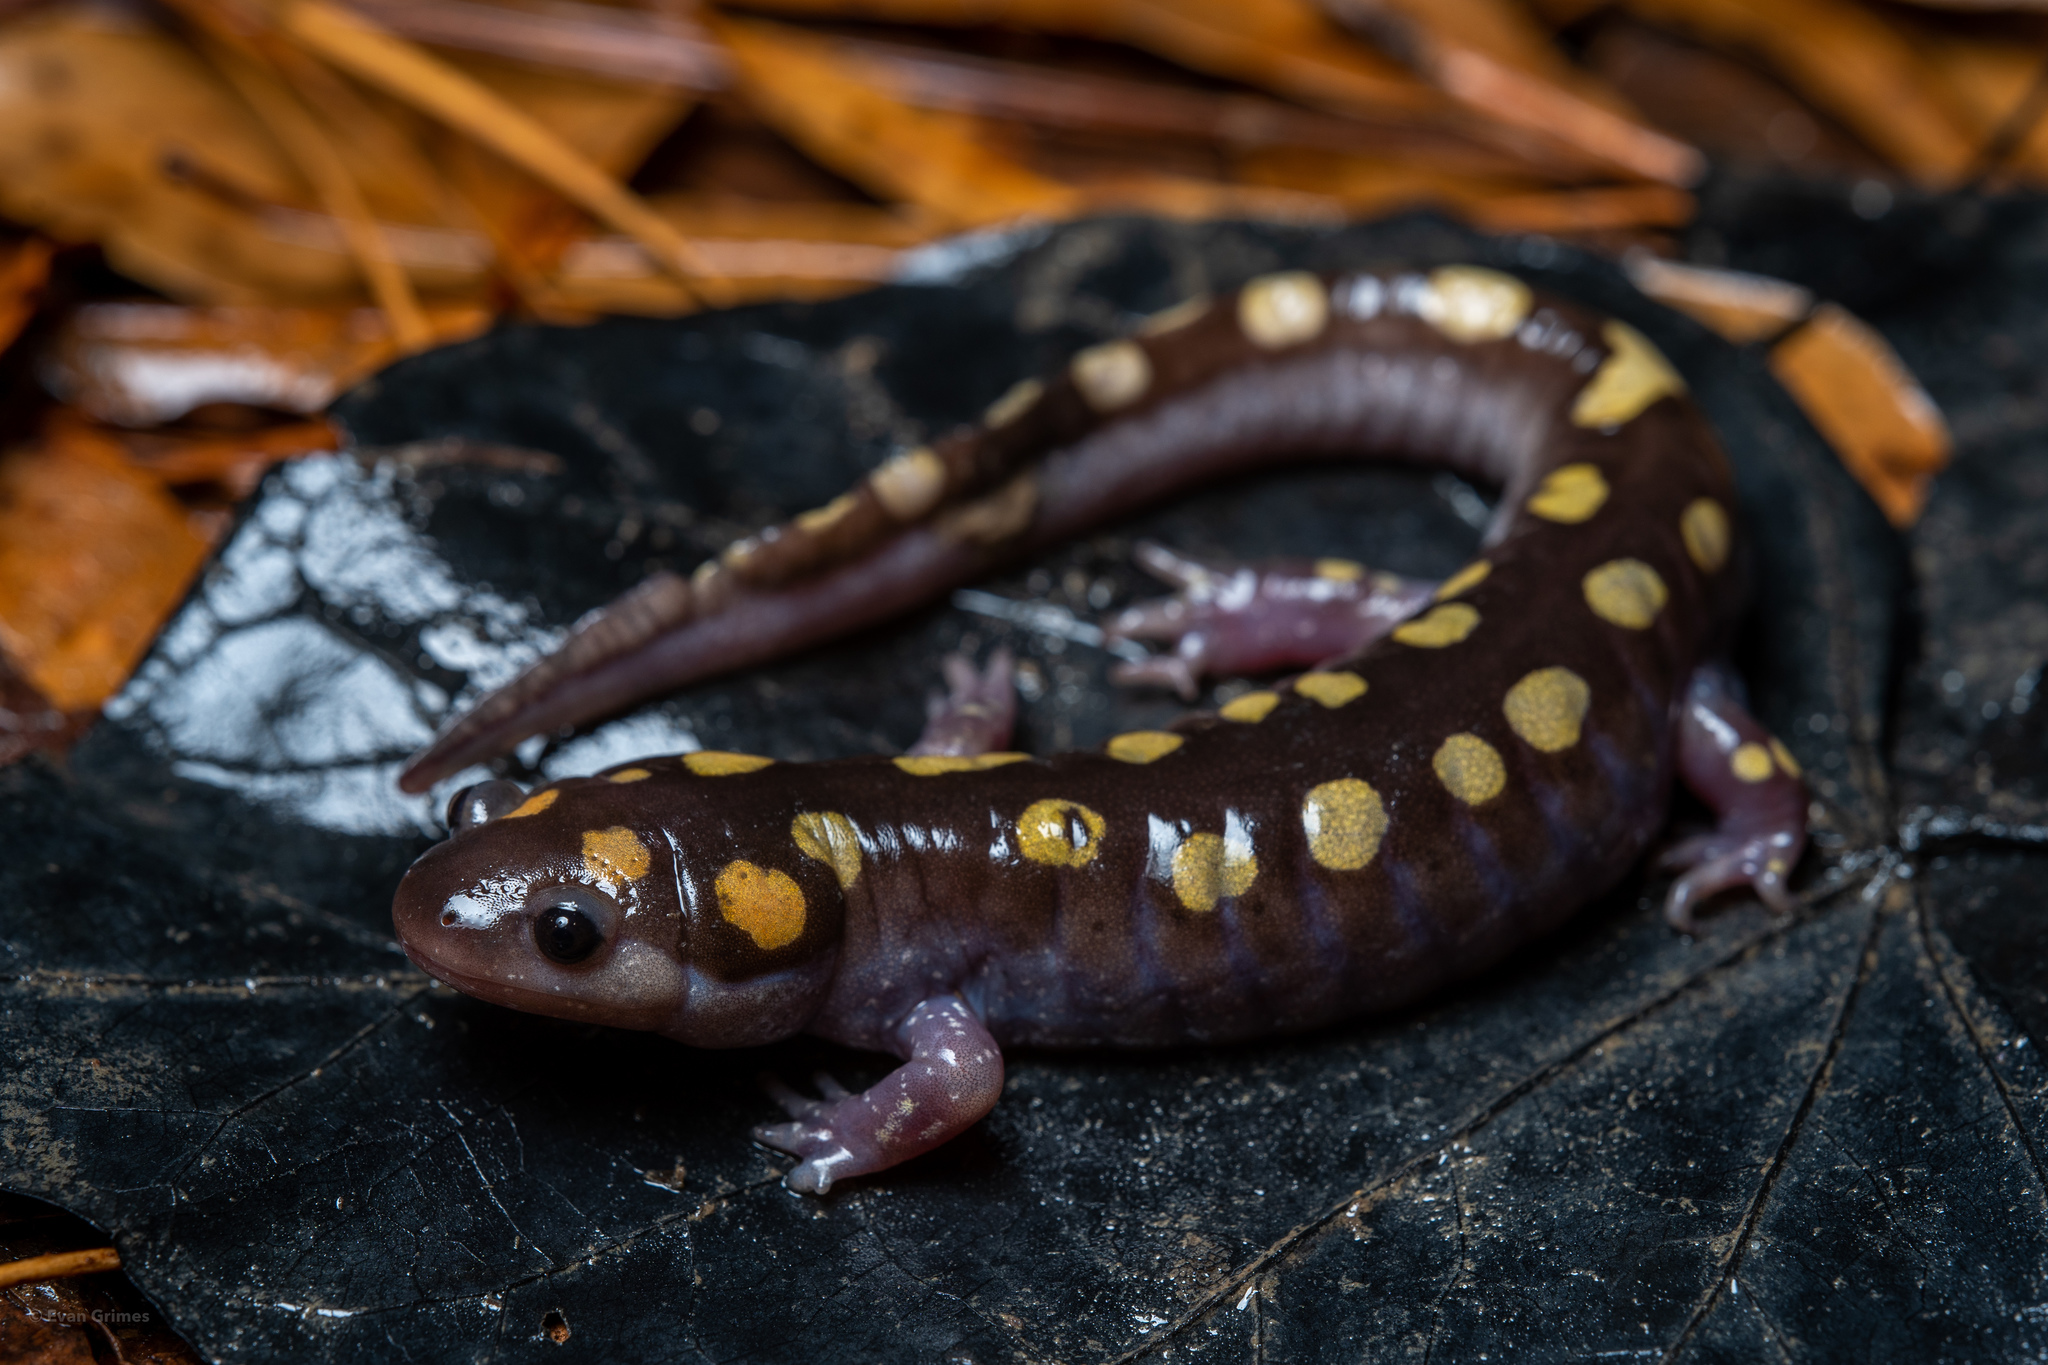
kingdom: Animalia
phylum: Chordata
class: Amphibia
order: Caudata
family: Ambystomatidae
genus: Ambystoma
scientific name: Ambystoma maculatum
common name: Spotted salamander
